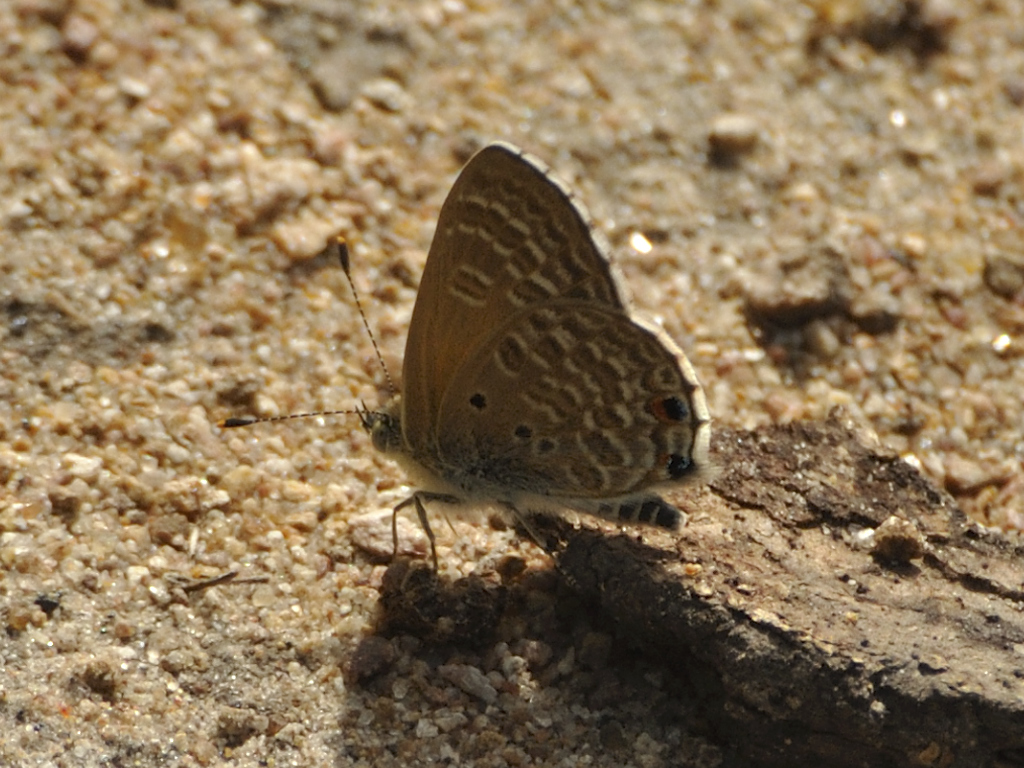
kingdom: Animalia
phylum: Arthropoda
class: Insecta
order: Lepidoptera
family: Lycaenidae
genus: Anthene
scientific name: Anthene dulcis
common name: Mashuna hairtail
